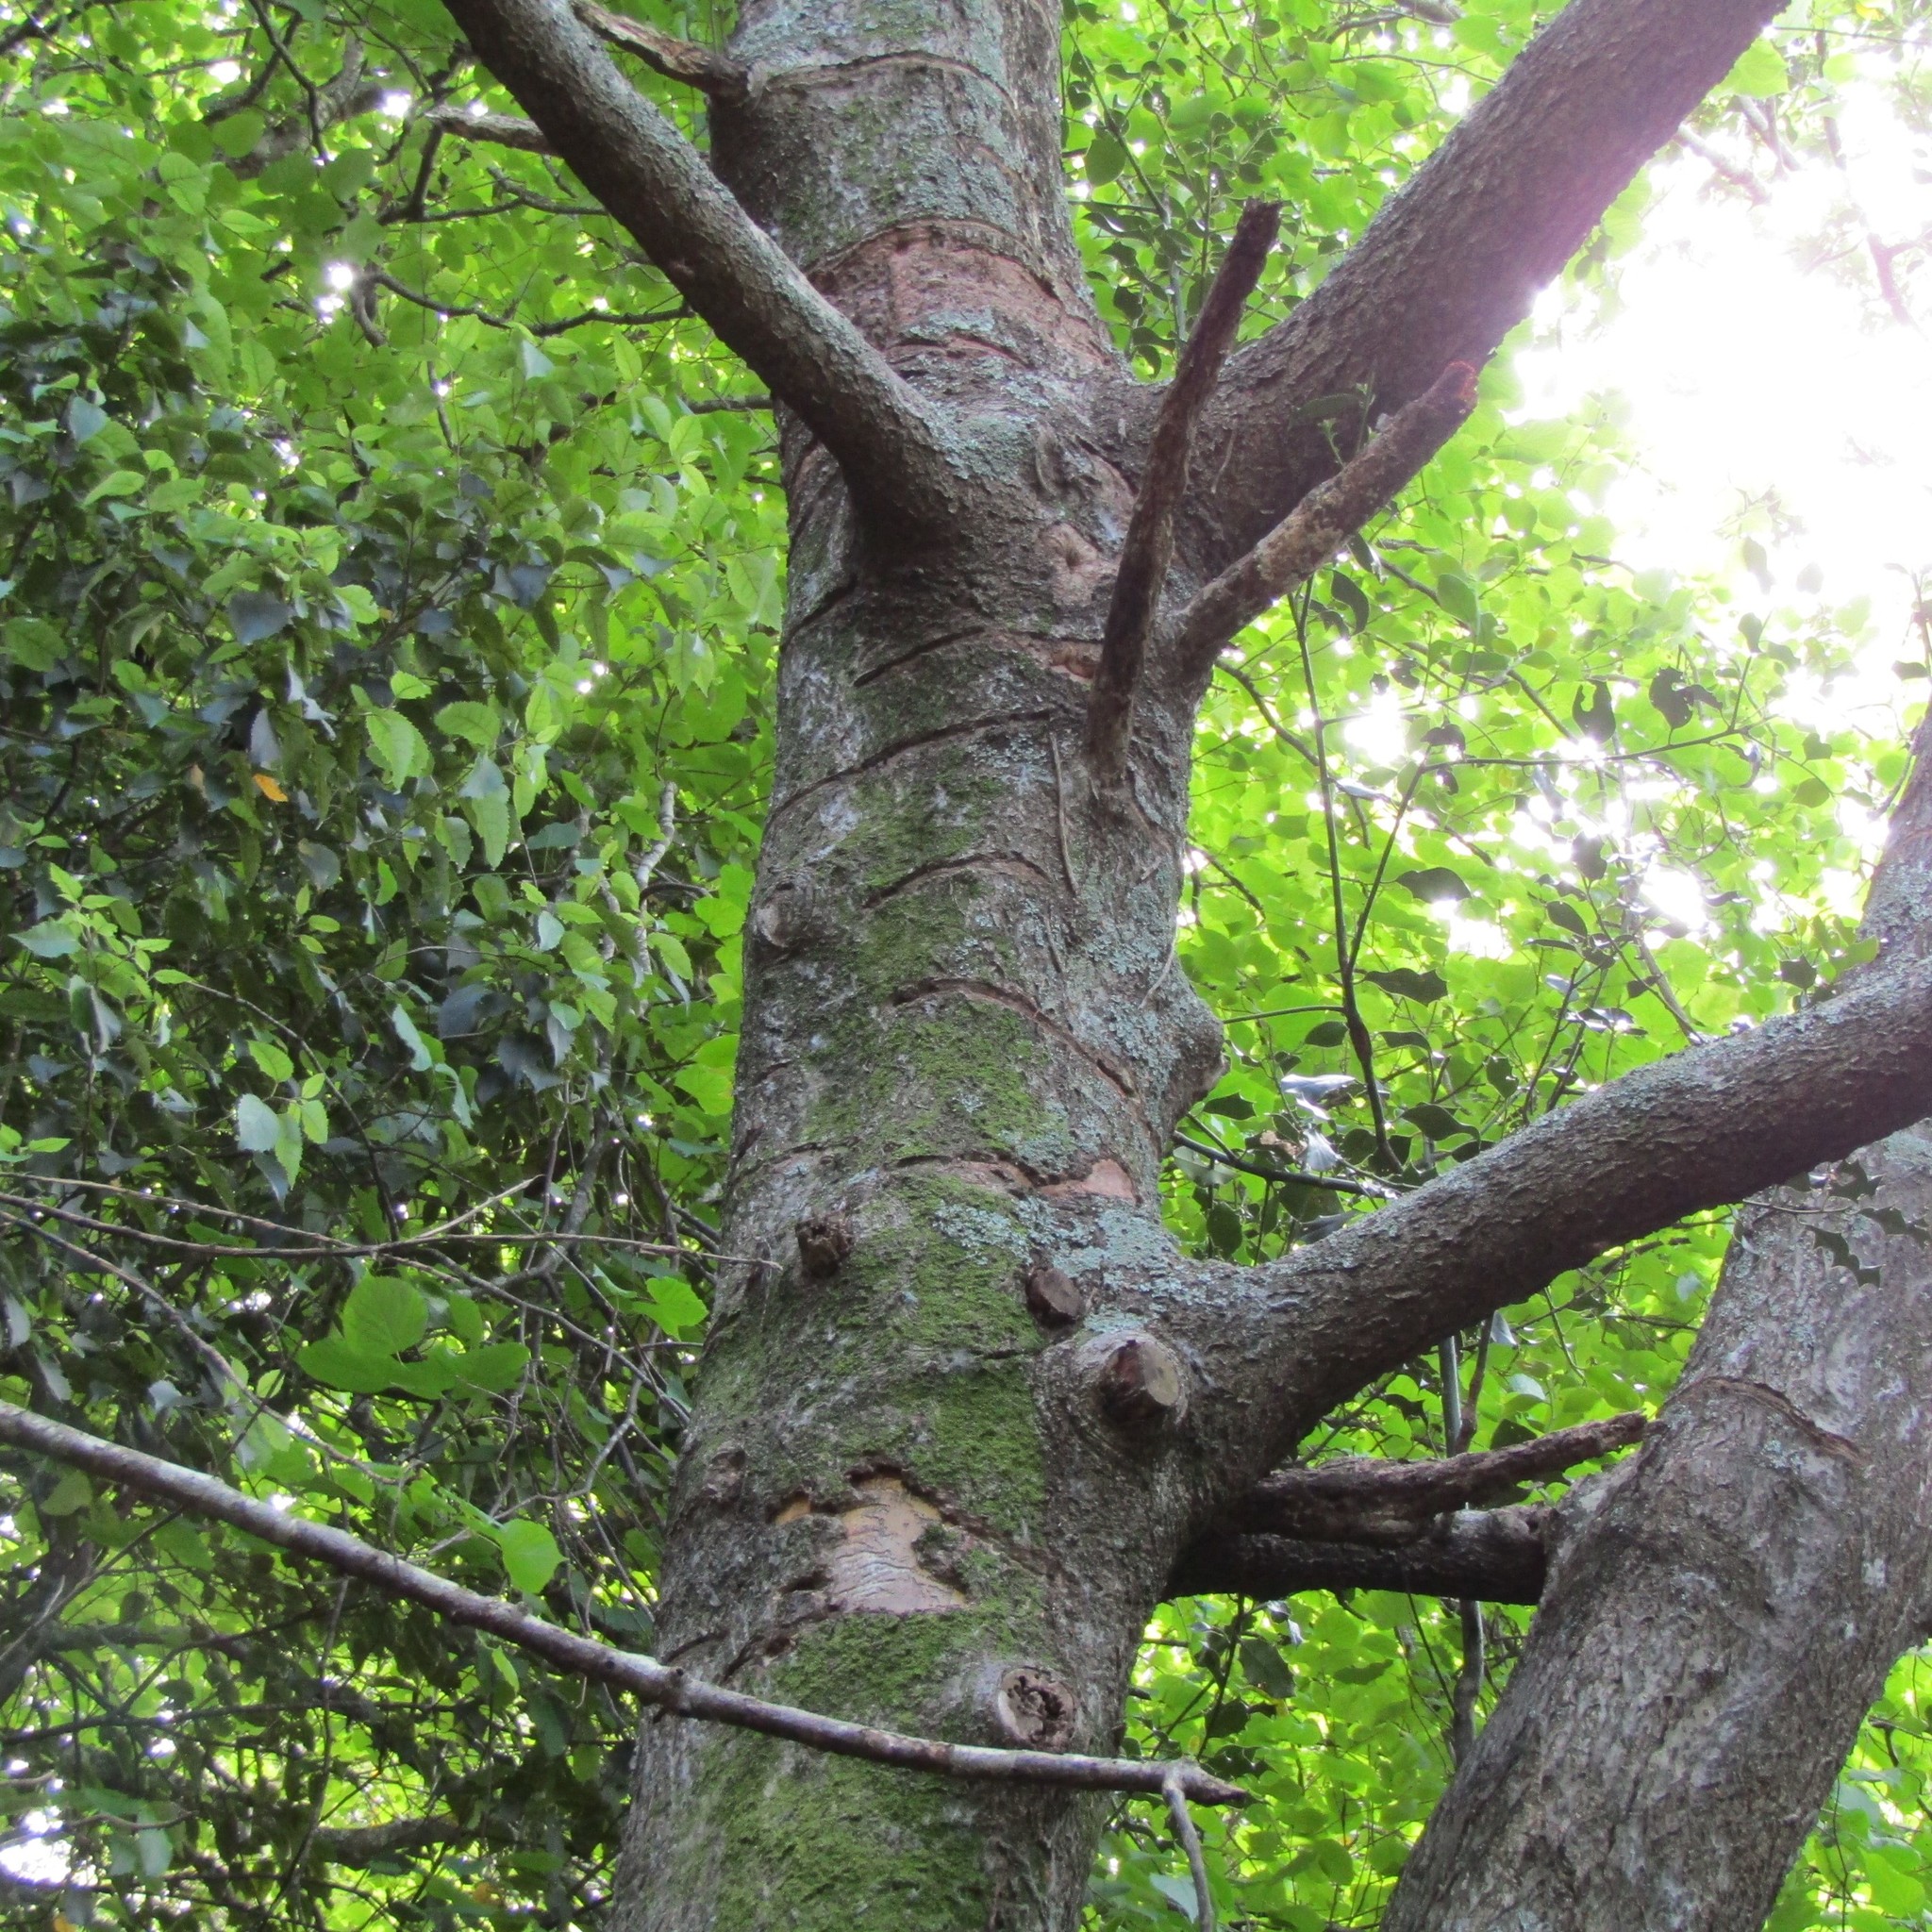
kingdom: Animalia
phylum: Chordata
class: Aves
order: Psittaciformes
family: Psittacidae
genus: Nestor
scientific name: Nestor meridionalis
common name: New zealand kaka
